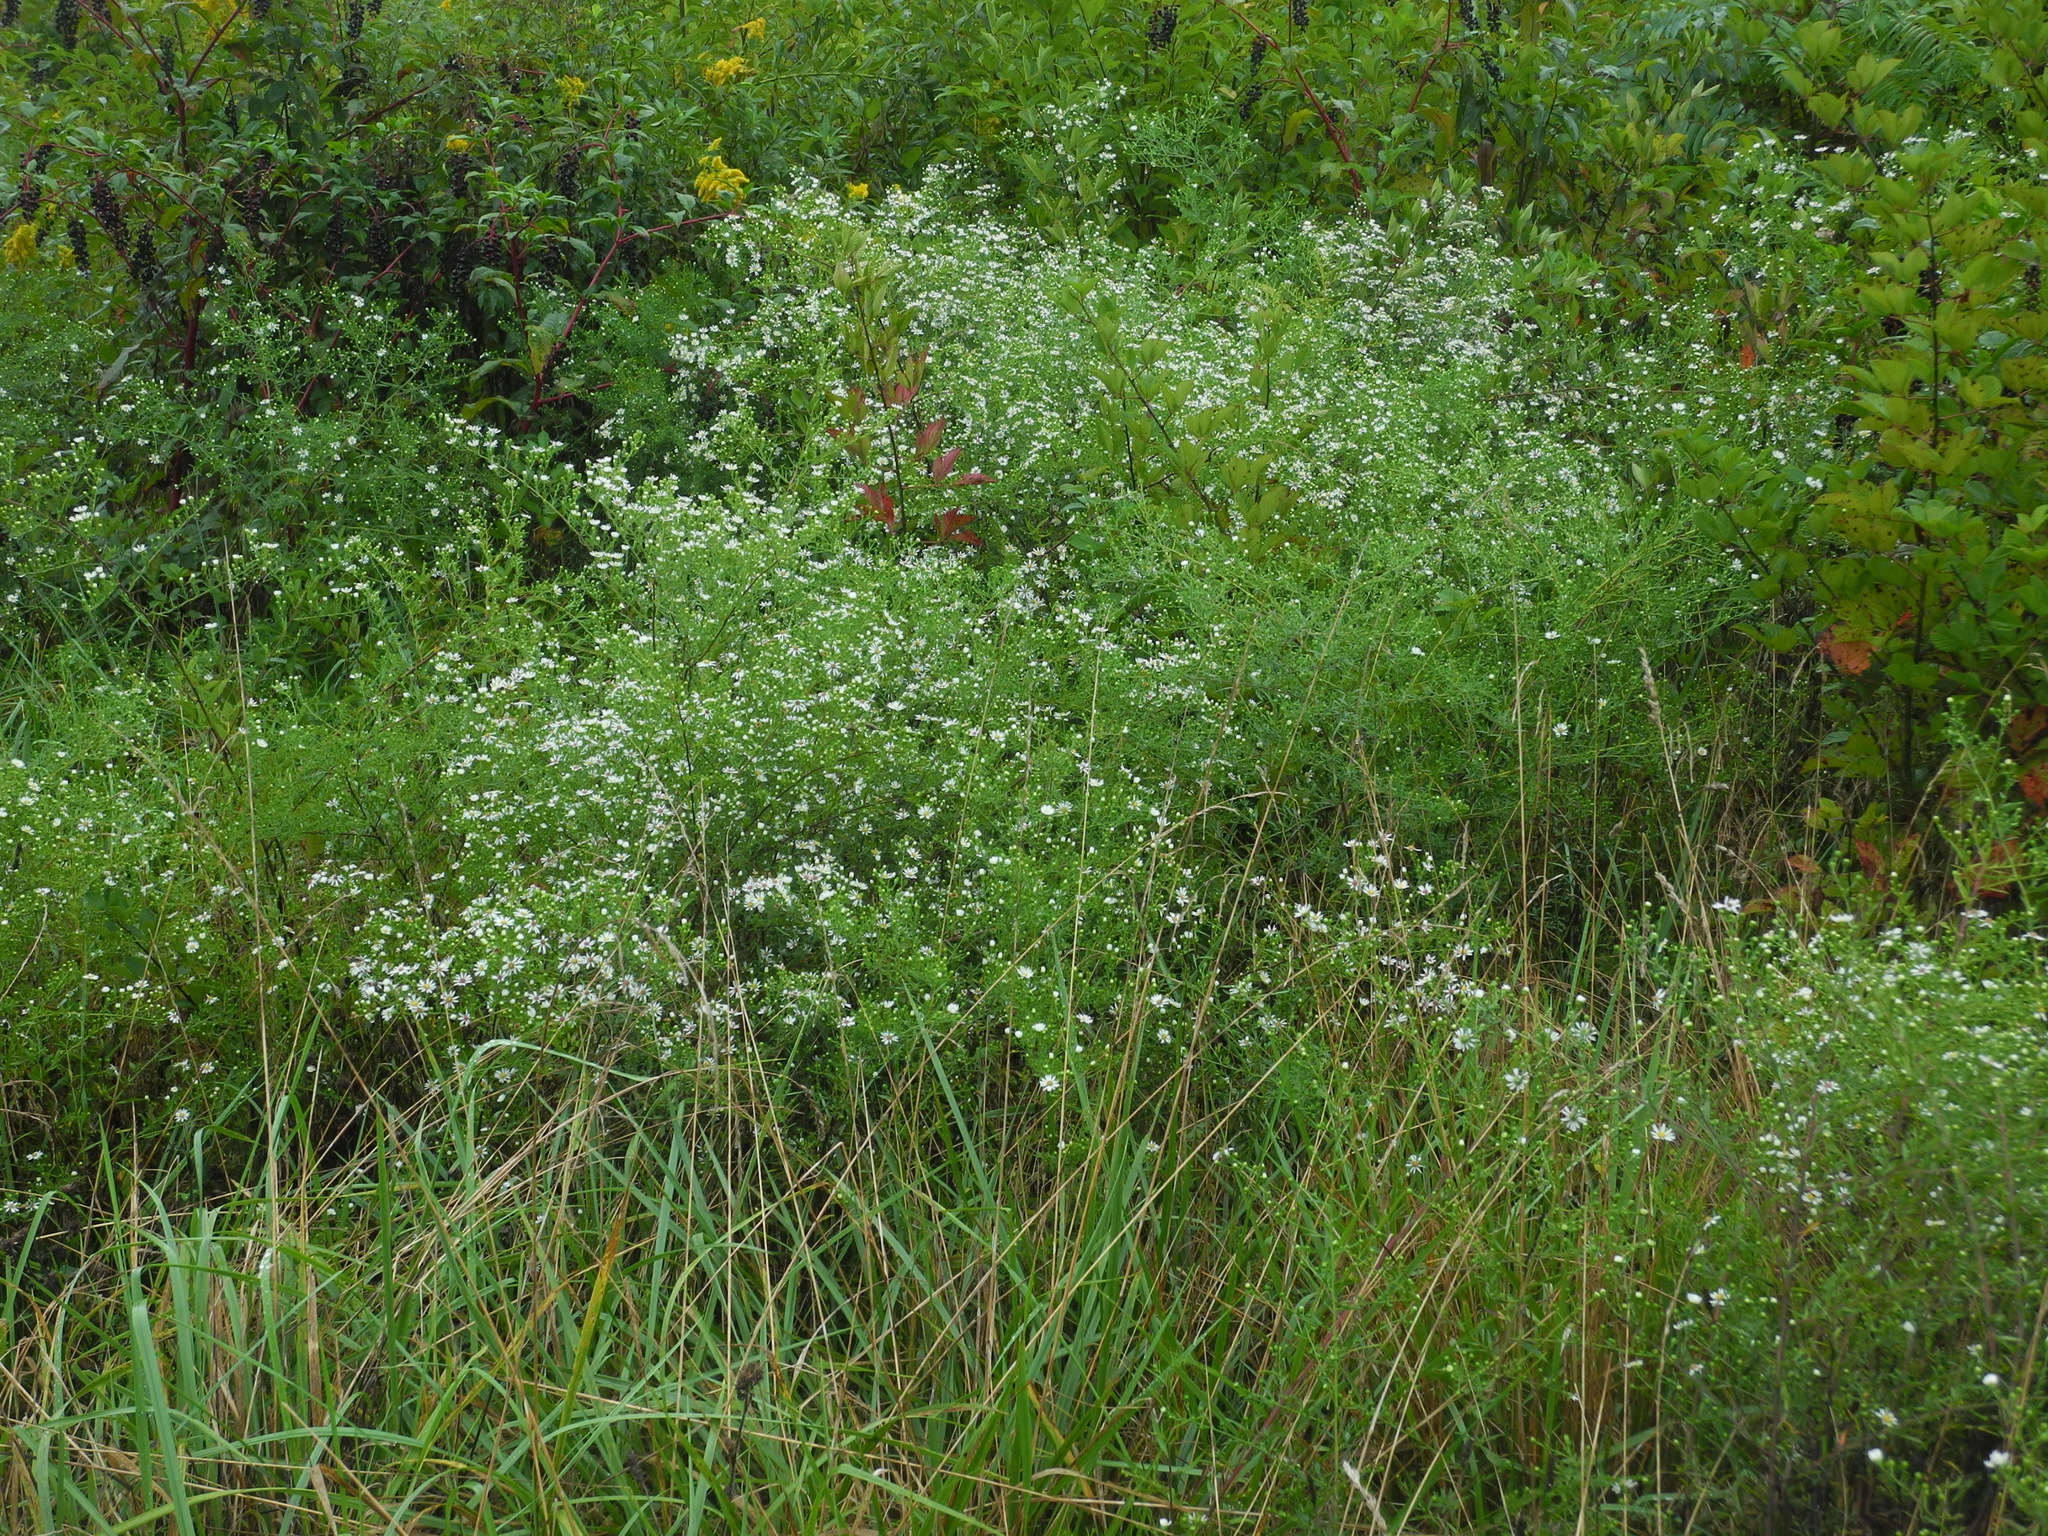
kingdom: Plantae
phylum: Tracheophyta
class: Magnoliopsida
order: Asterales
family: Asteraceae
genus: Symphyotrichum
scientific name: Symphyotrichum pilosum
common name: Awl aster
